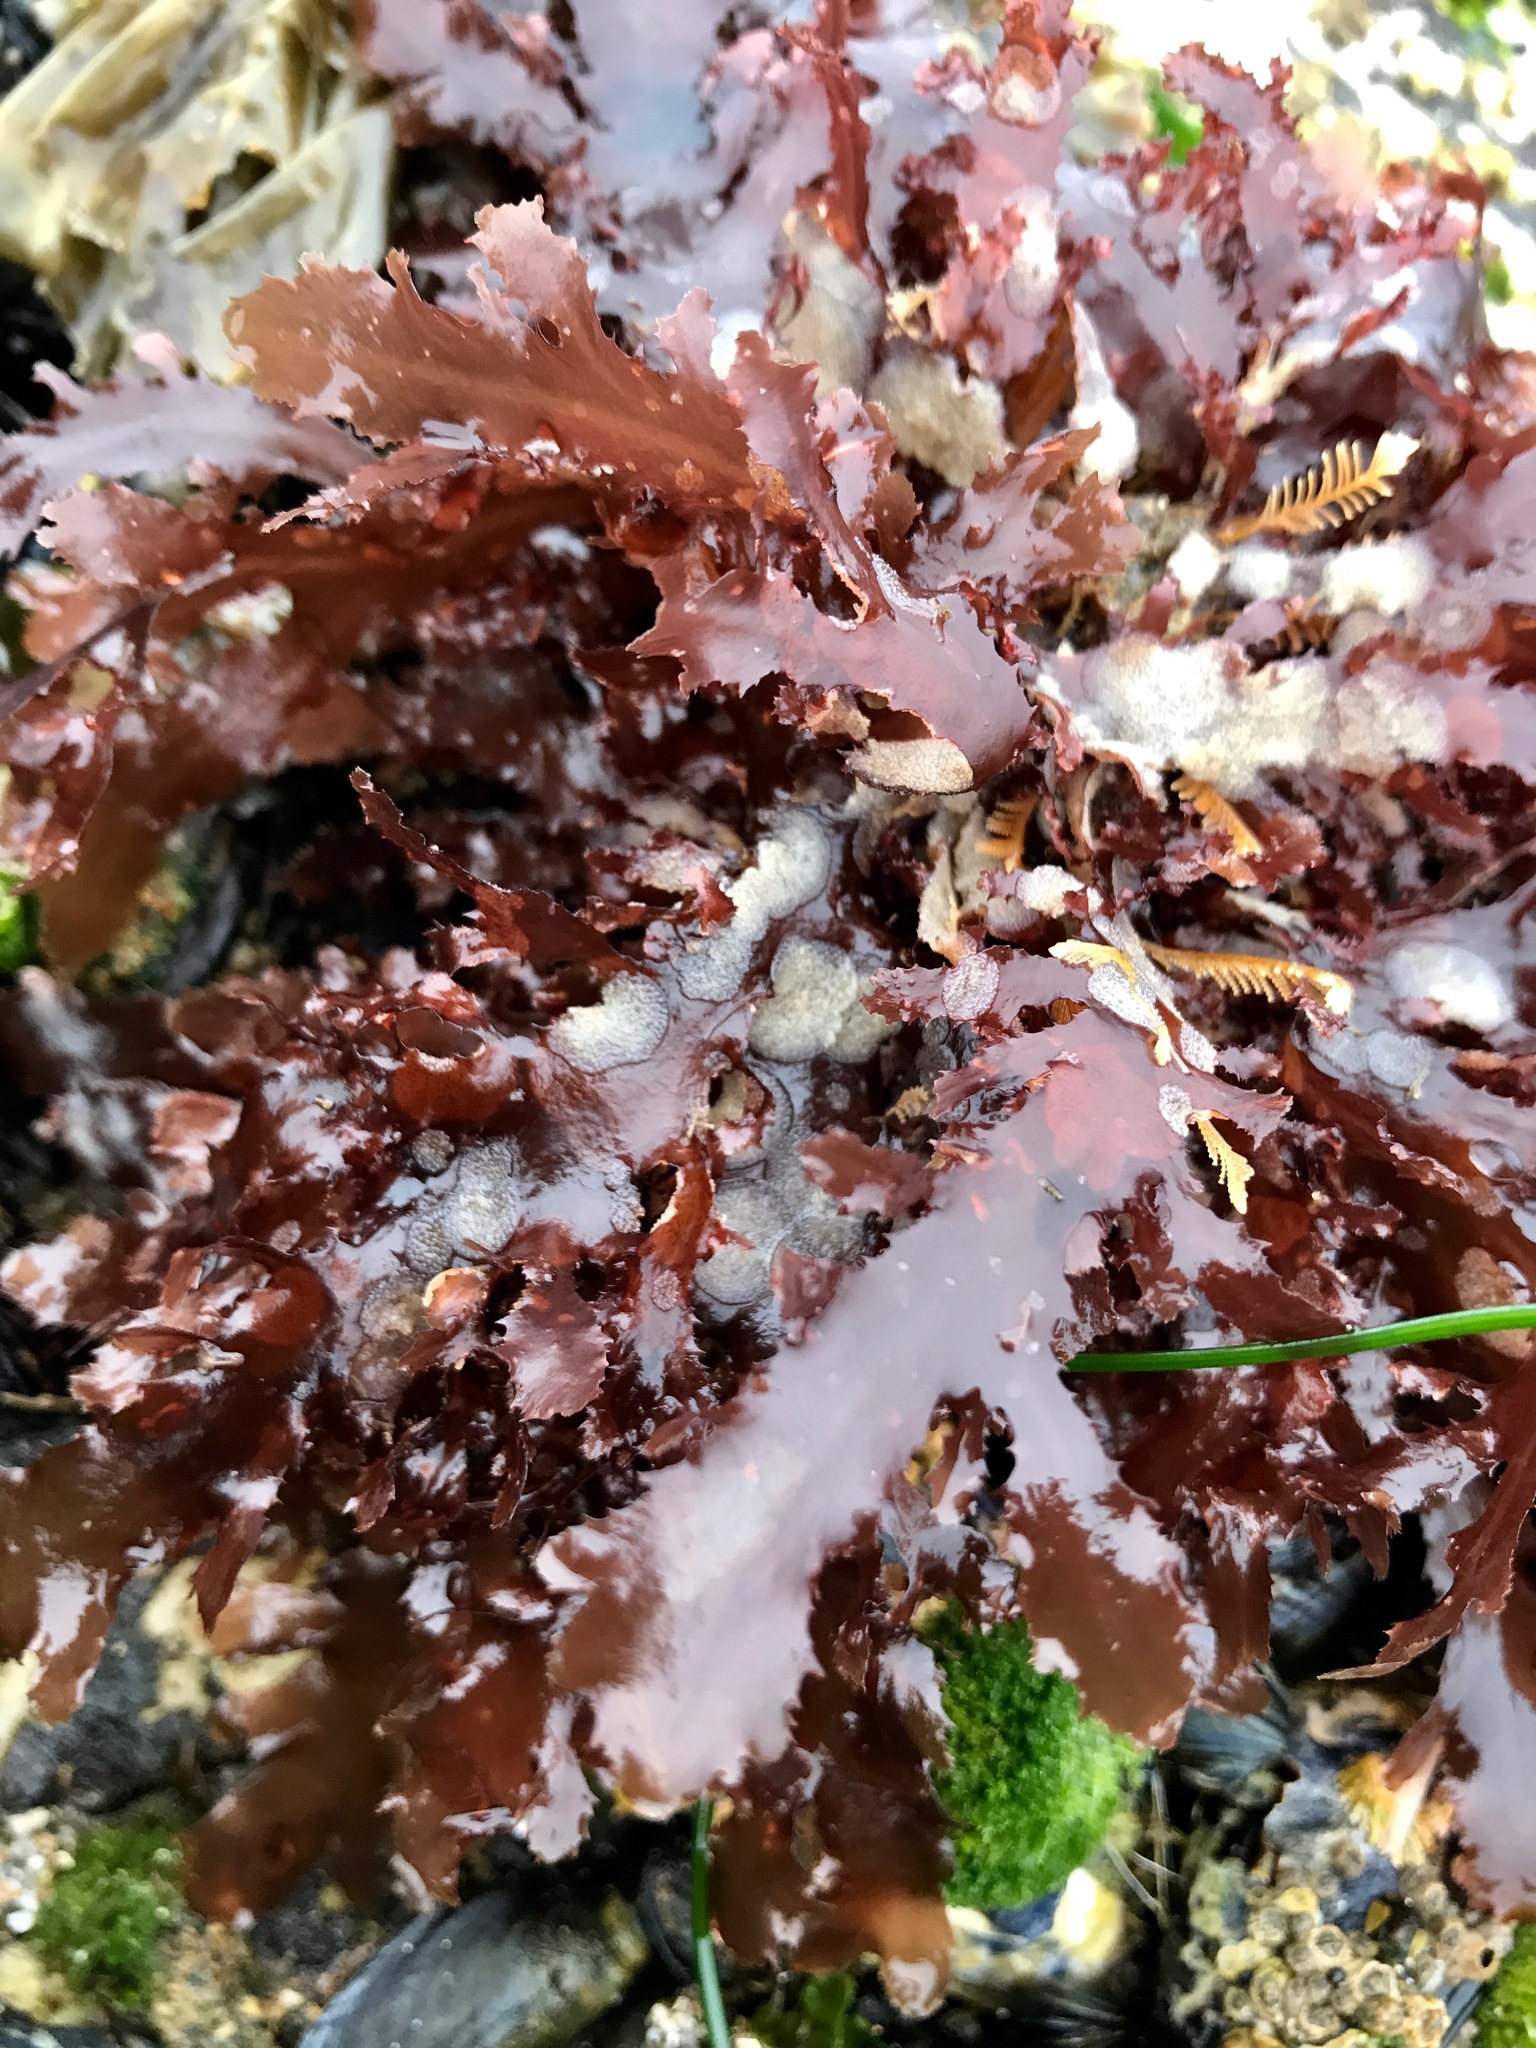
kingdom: Plantae
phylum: Rhodophyta
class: Florideophyceae
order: Ceramiales
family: Delesseriaceae
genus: Nienburgia
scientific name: Nienburgia andersoniana
